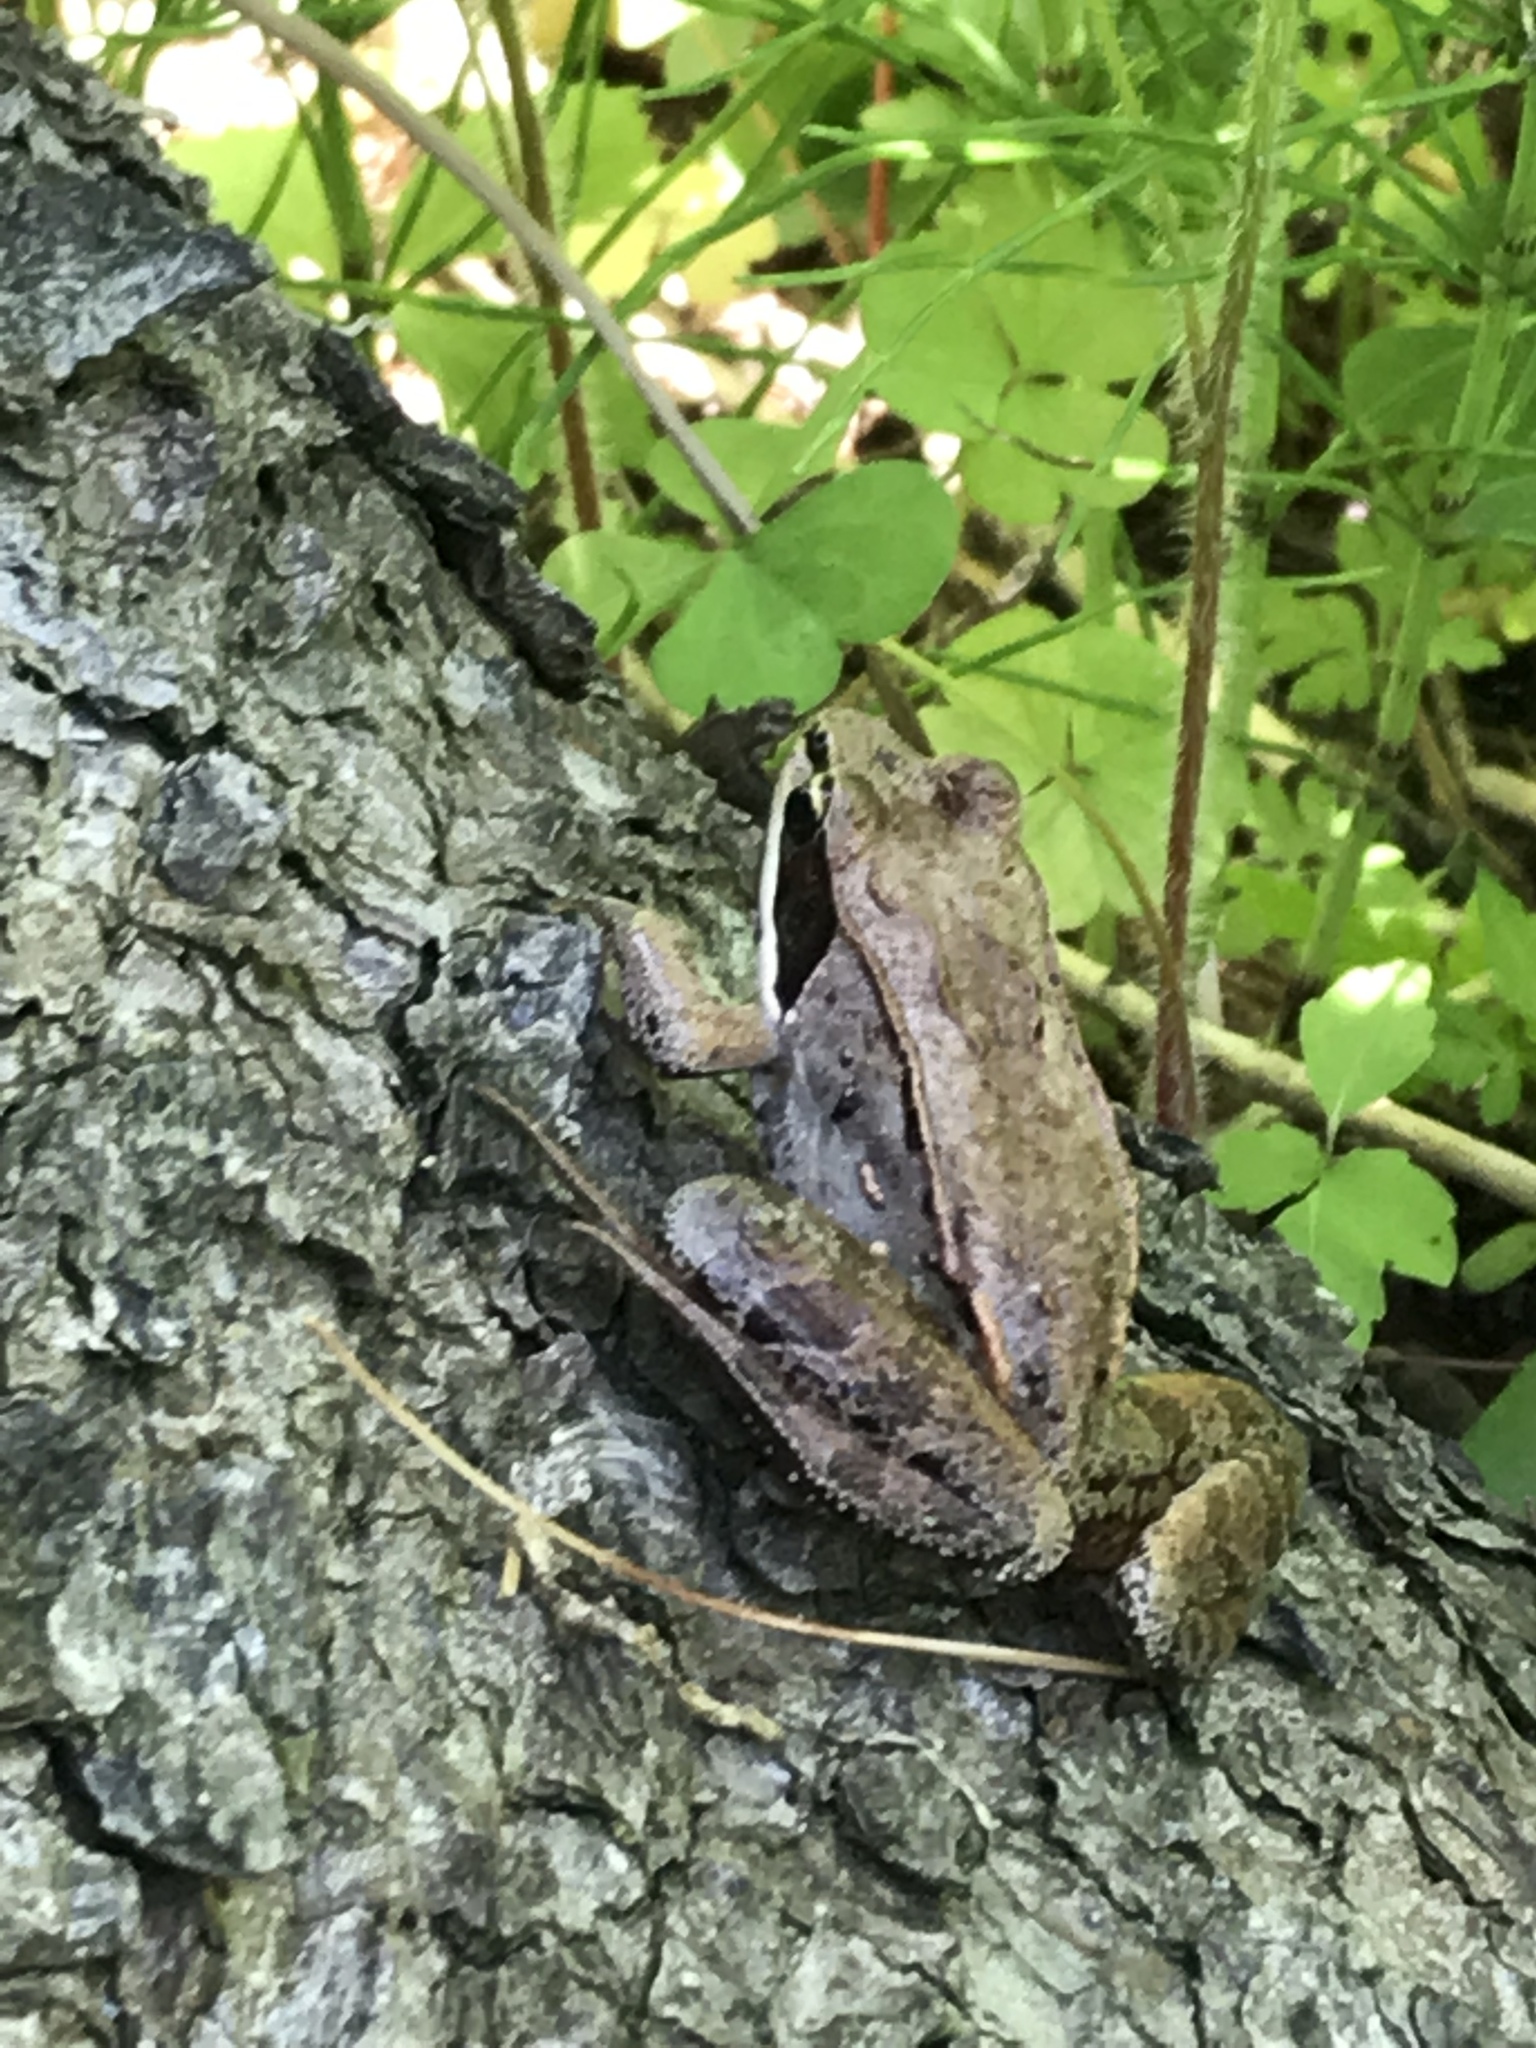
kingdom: Animalia
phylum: Chordata
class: Amphibia
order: Anura
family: Ranidae
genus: Lithobates
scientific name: Lithobates sylvaticus
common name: Wood frog
